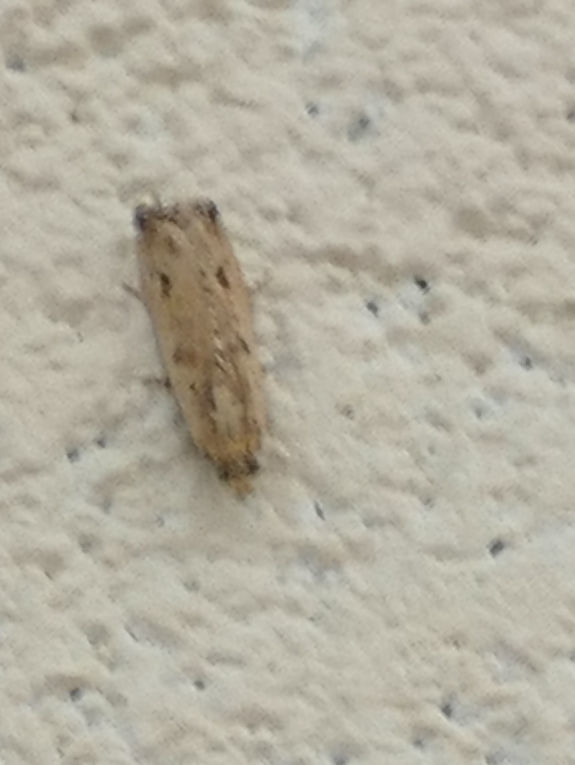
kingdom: Animalia
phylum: Arthropoda
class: Insecta
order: Lepidoptera
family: Tortricidae
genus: Bactra
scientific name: Bactra verutana
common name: Javelin moth
